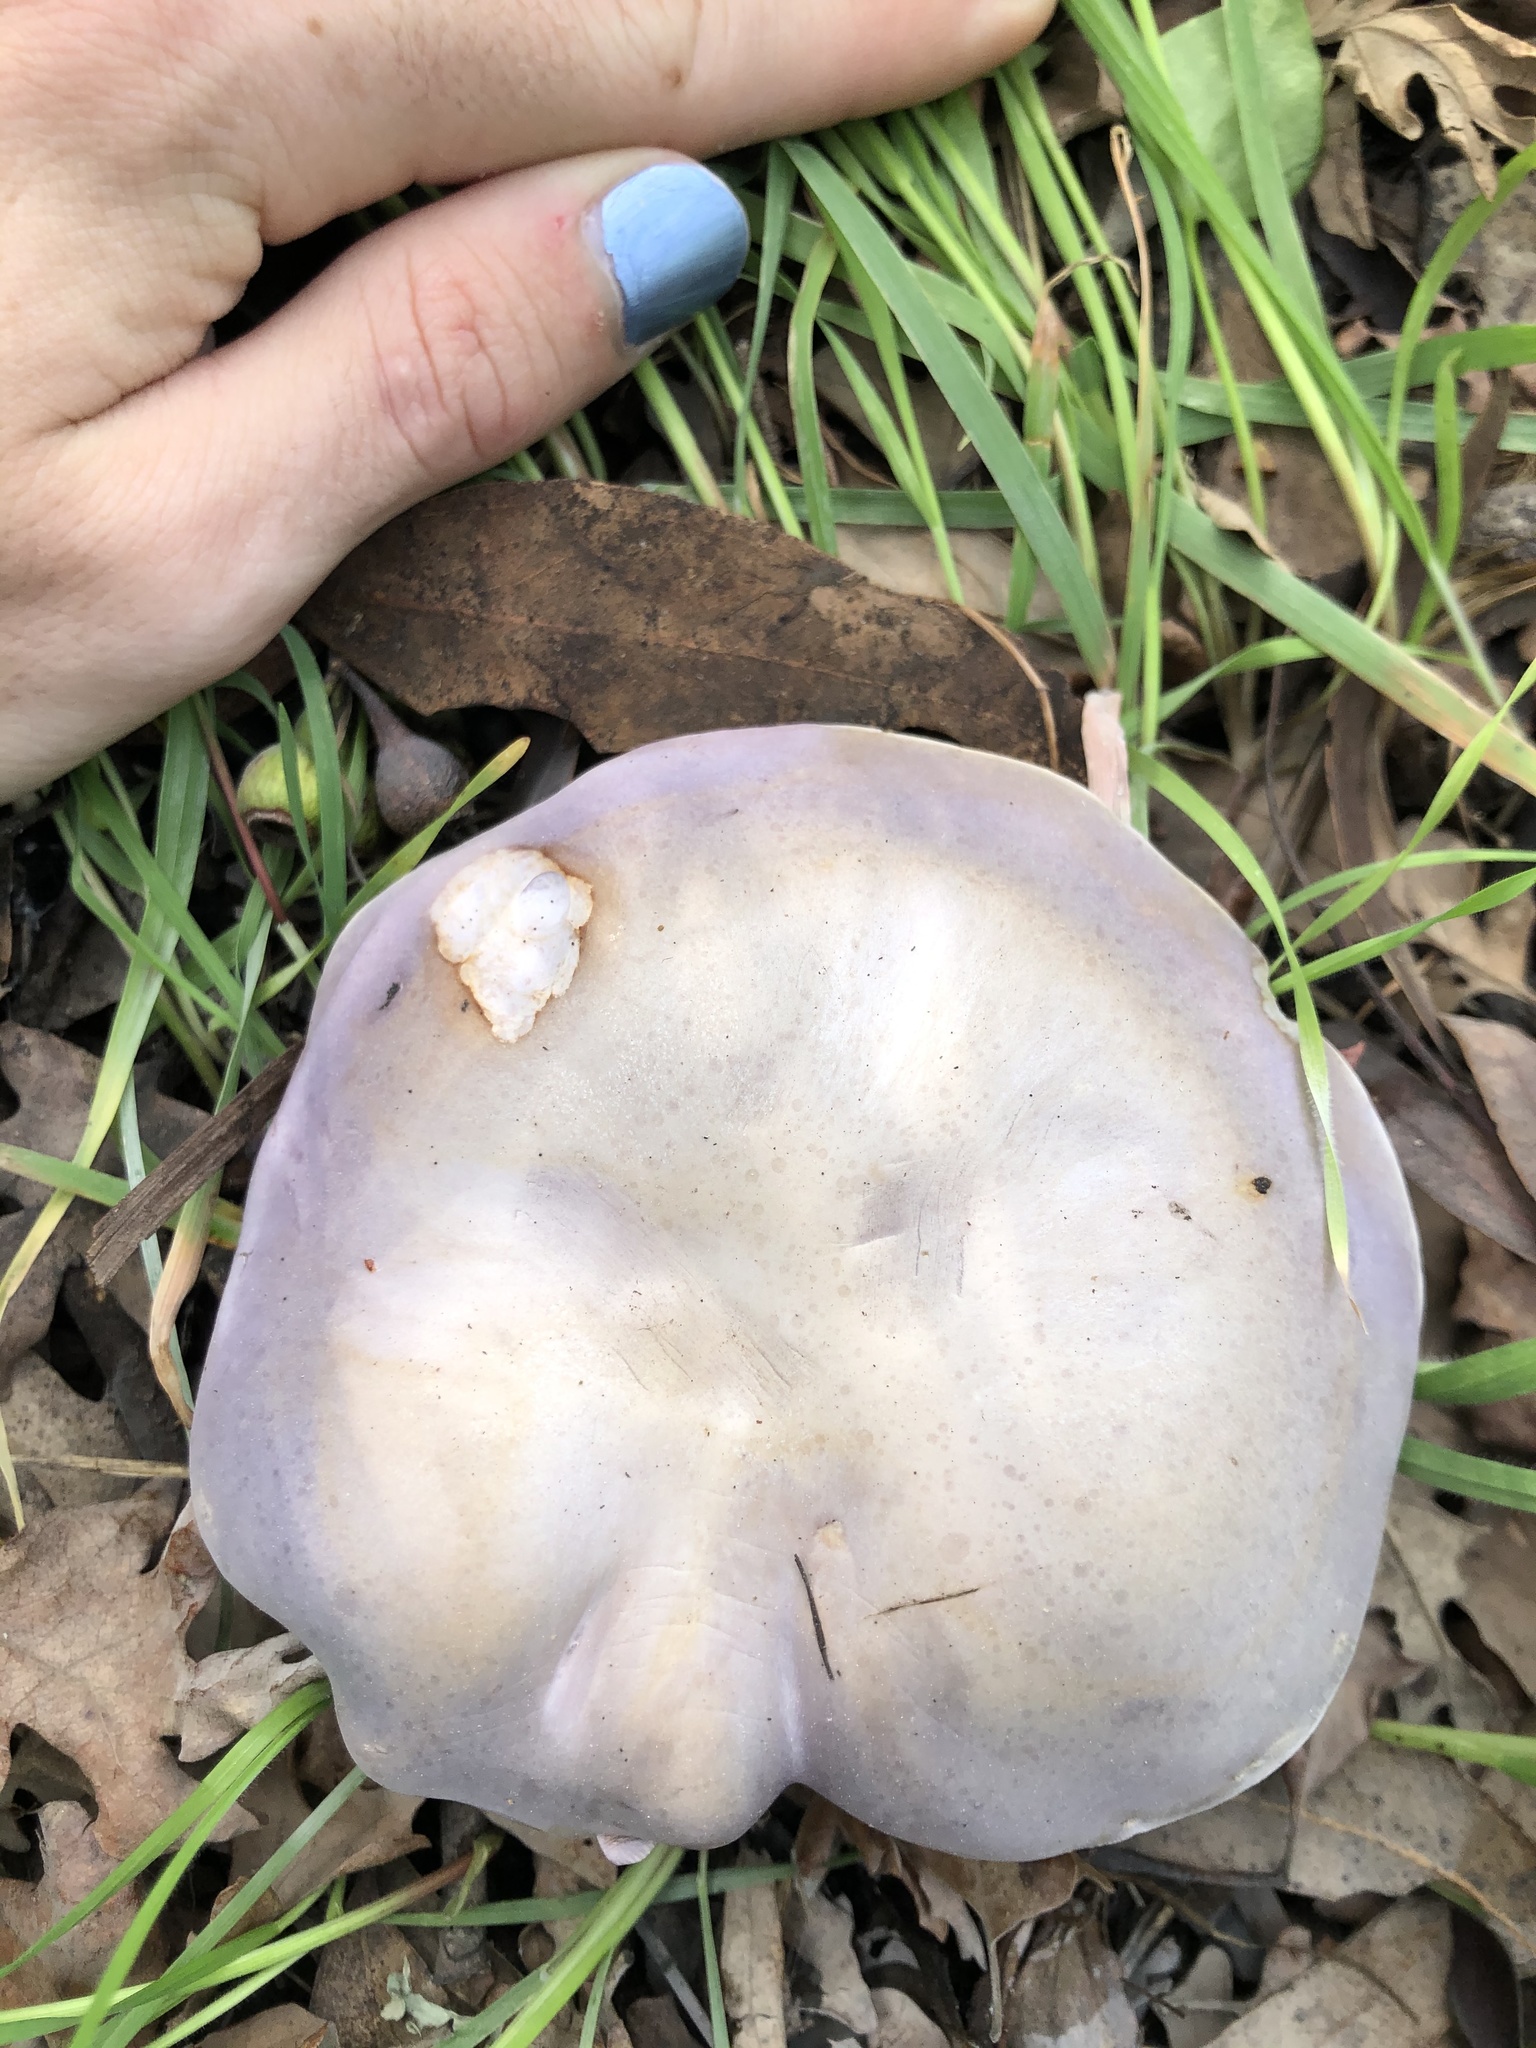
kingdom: Fungi
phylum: Basidiomycota
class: Agaricomycetes
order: Agaricales
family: Tricholomataceae
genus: Collybia
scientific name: Collybia
